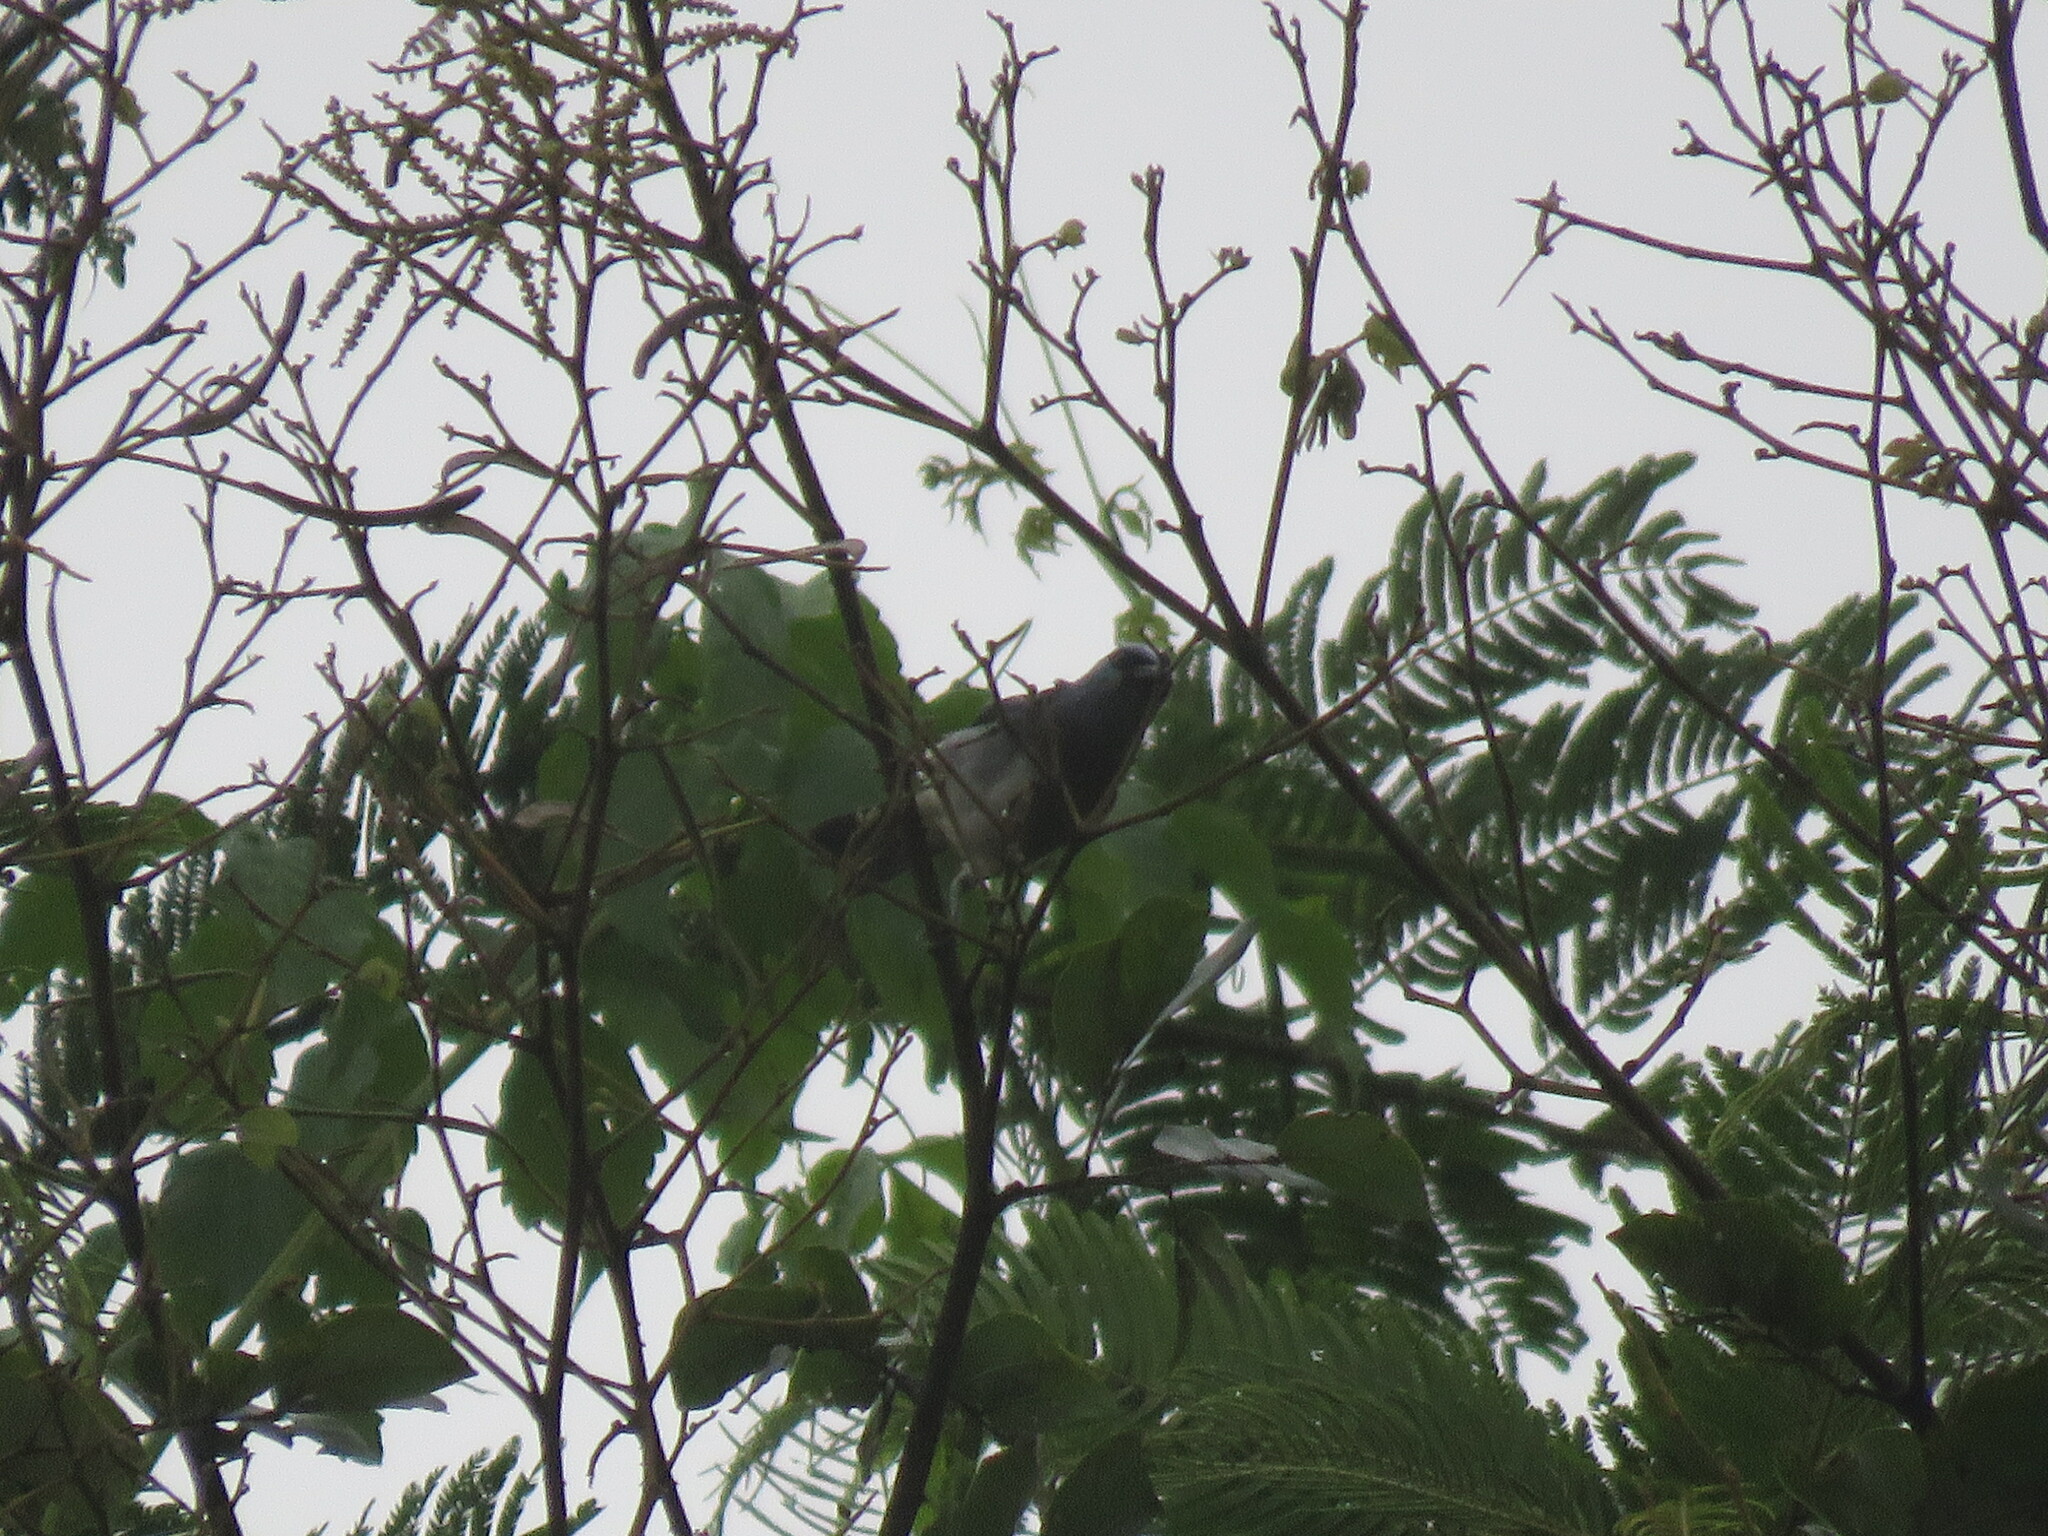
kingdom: Animalia
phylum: Chordata
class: Aves
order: Passeriformes
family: Thraupidae
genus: Stilpnia
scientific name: Stilpnia nigrocincta
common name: Masked tanager
